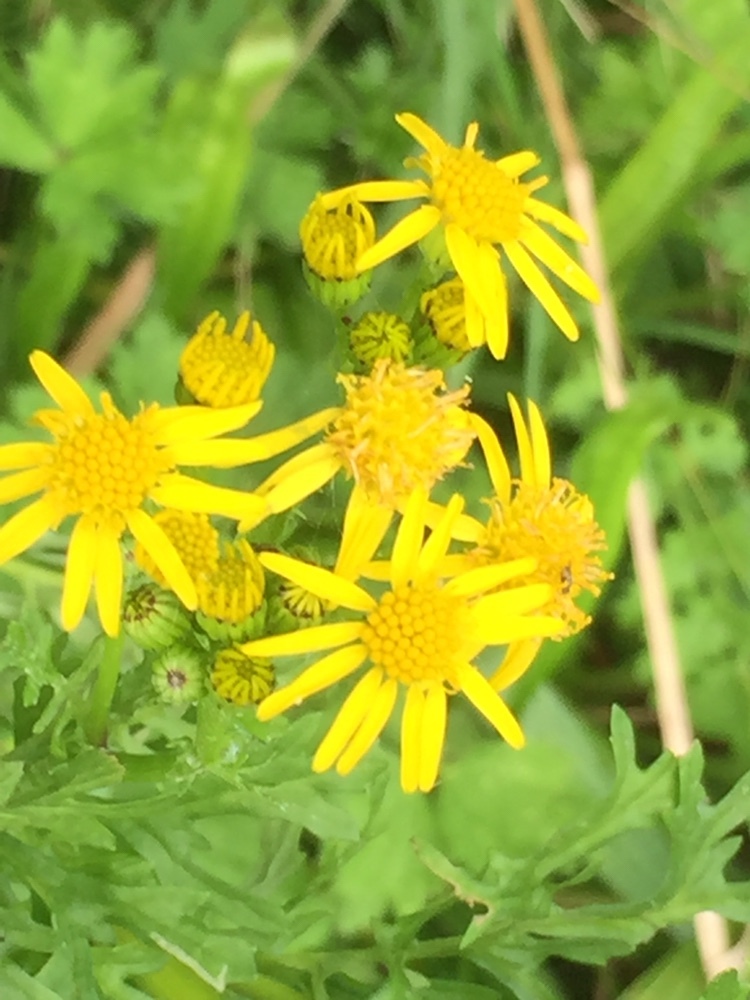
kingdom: Plantae
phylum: Tracheophyta
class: Magnoliopsida
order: Asterales
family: Asteraceae
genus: Jacobaea
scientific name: Jacobaea vulgaris
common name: Stinking willie
